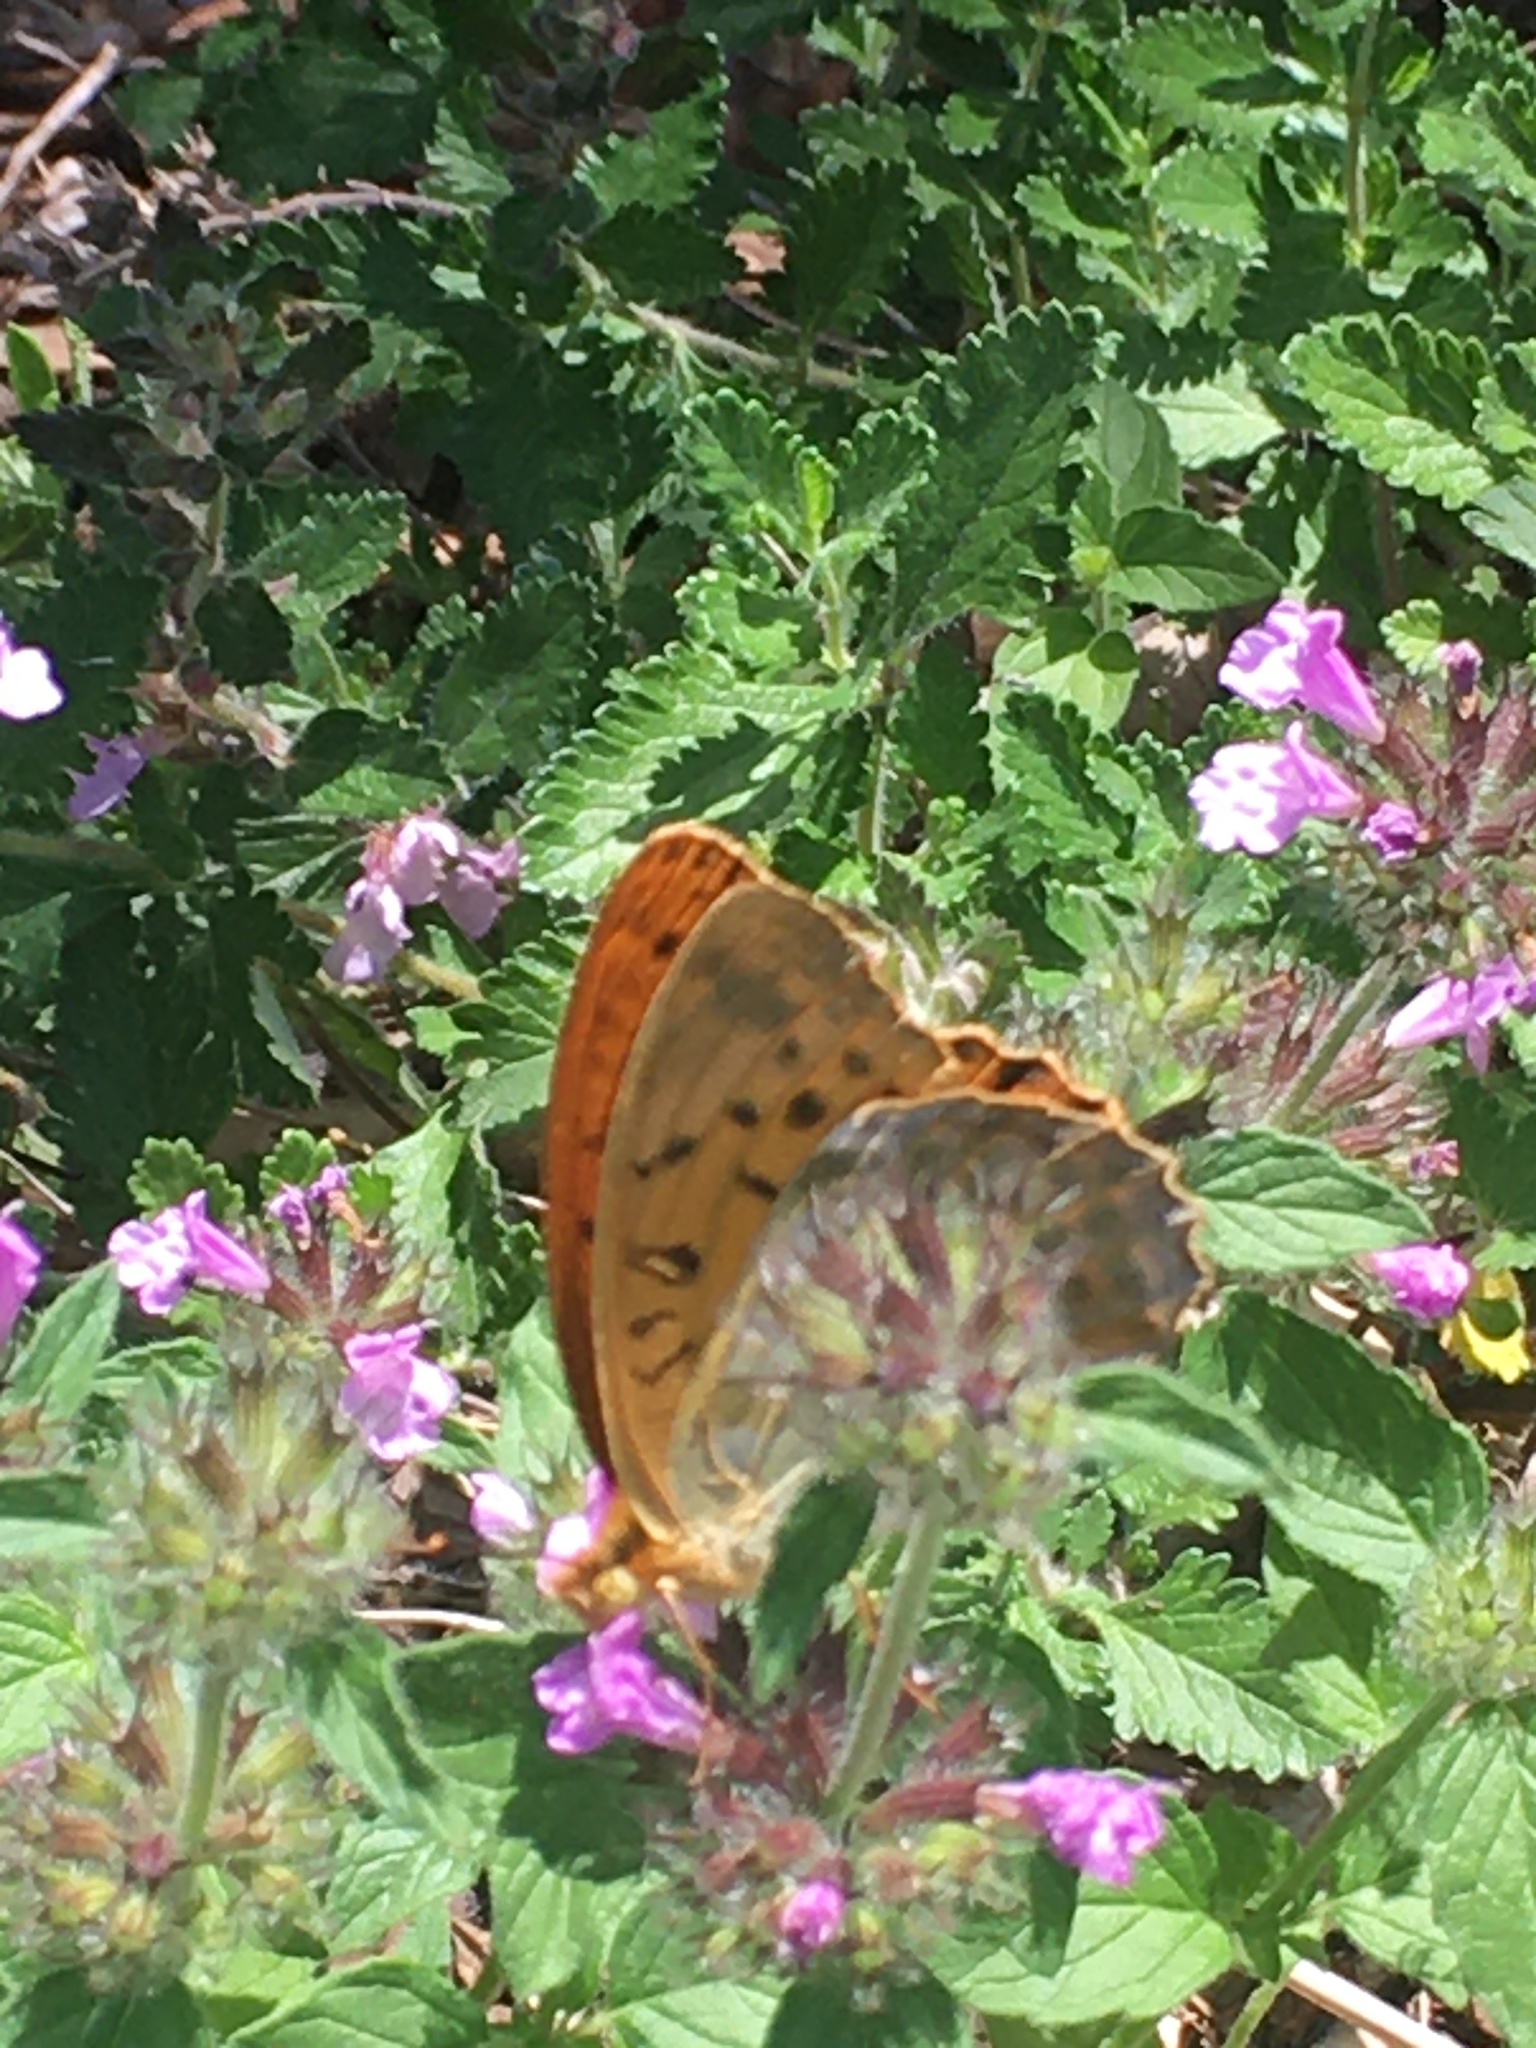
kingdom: Animalia
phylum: Arthropoda
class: Insecta
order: Lepidoptera
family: Nymphalidae
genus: Argynnis
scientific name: Argynnis paphia
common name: Silver-washed fritillary
